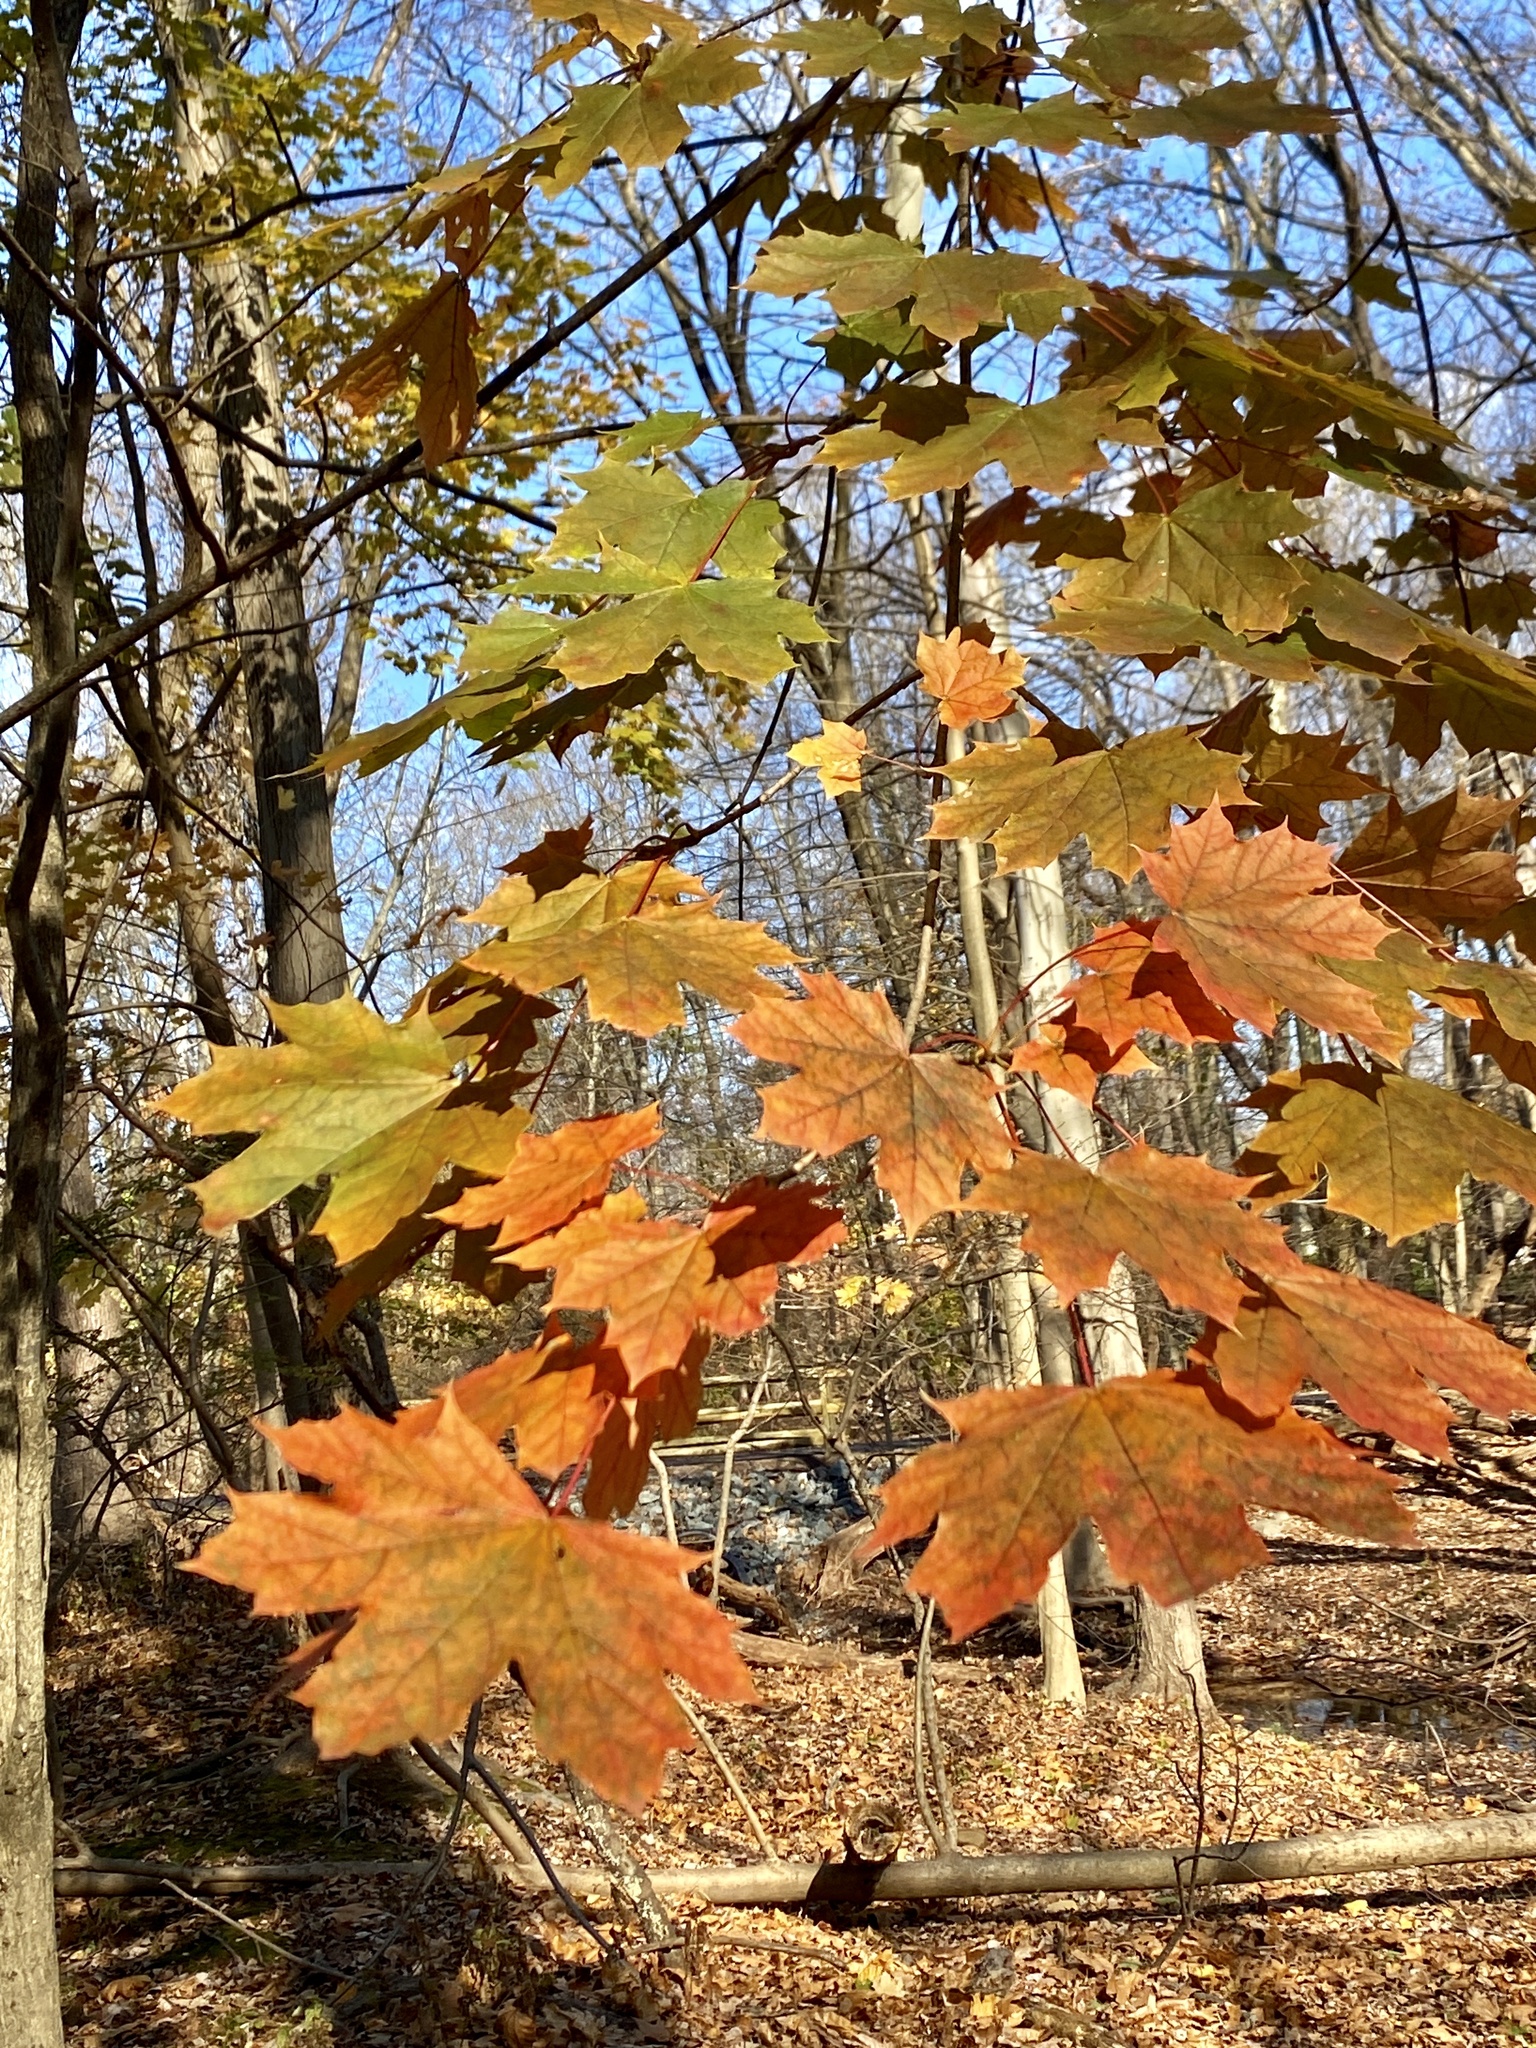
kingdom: Plantae
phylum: Tracheophyta
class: Magnoliopsida
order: Sapindales
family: Sapindaceae
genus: Acer
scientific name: Acer platanoides
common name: Norway maple
